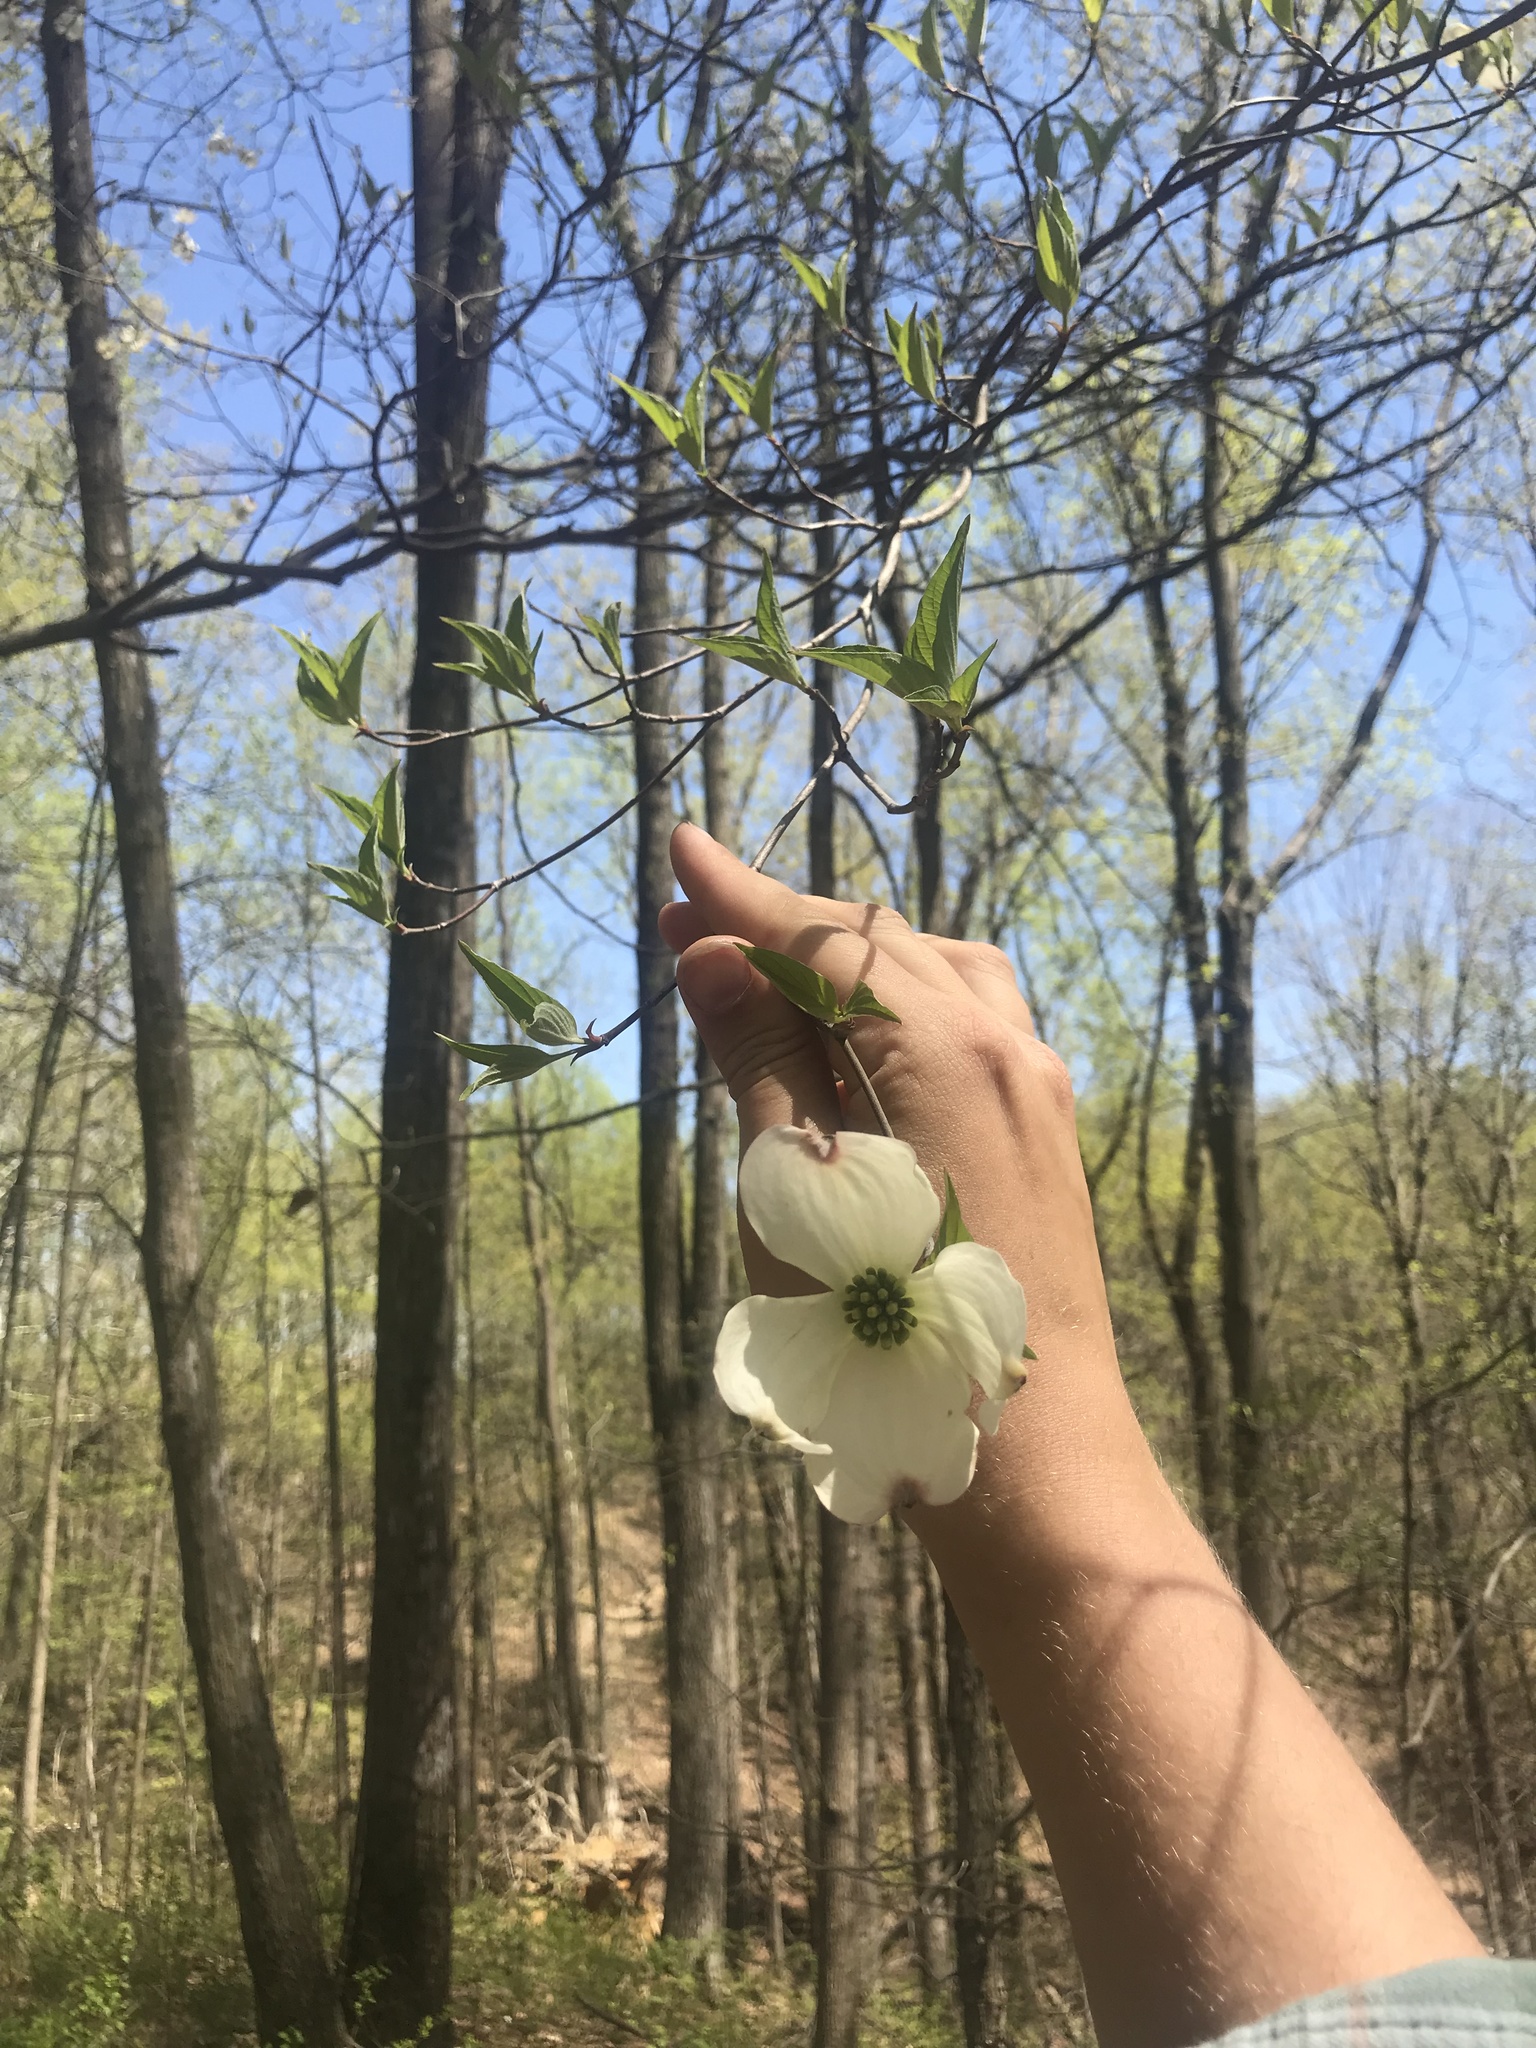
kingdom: Plantae
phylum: Tracheophyta
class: Magnoliopsida
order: Cornales
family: Cornaceae
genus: Cornus
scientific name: Cornus florida
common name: Flowering dogwood
